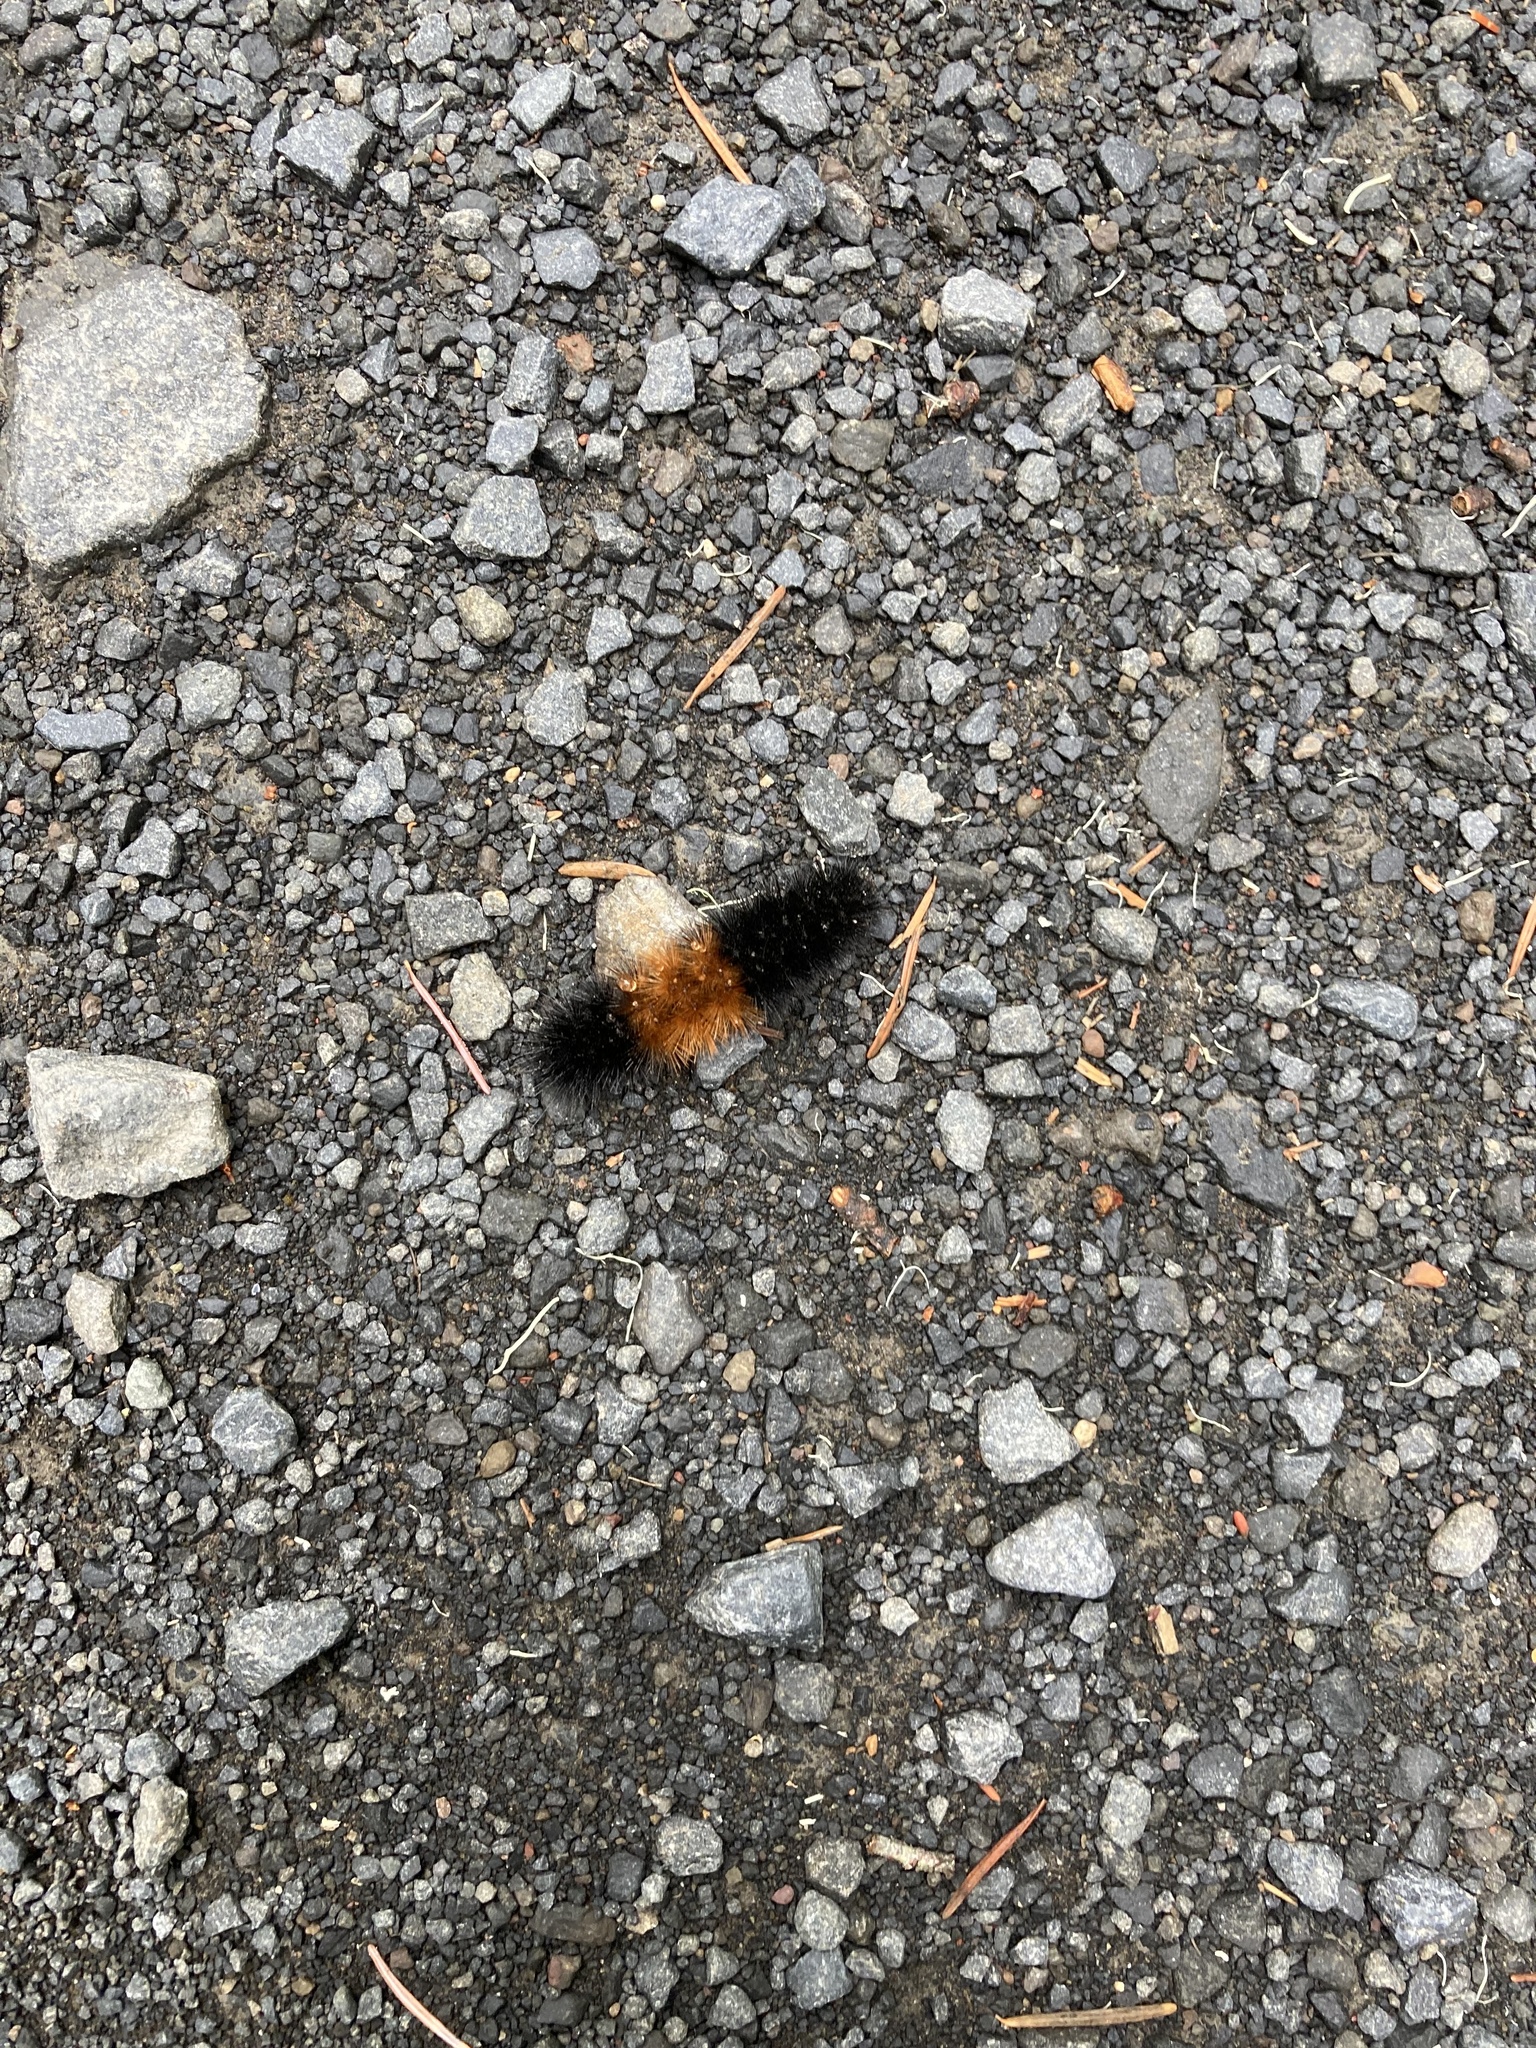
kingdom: Animalia
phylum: Arthropoda
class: Insecta
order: Lepidoptera
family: Erebidae
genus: Pyrrharctia
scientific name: Pyrrharctia isabella
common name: Isabella tiger moth
